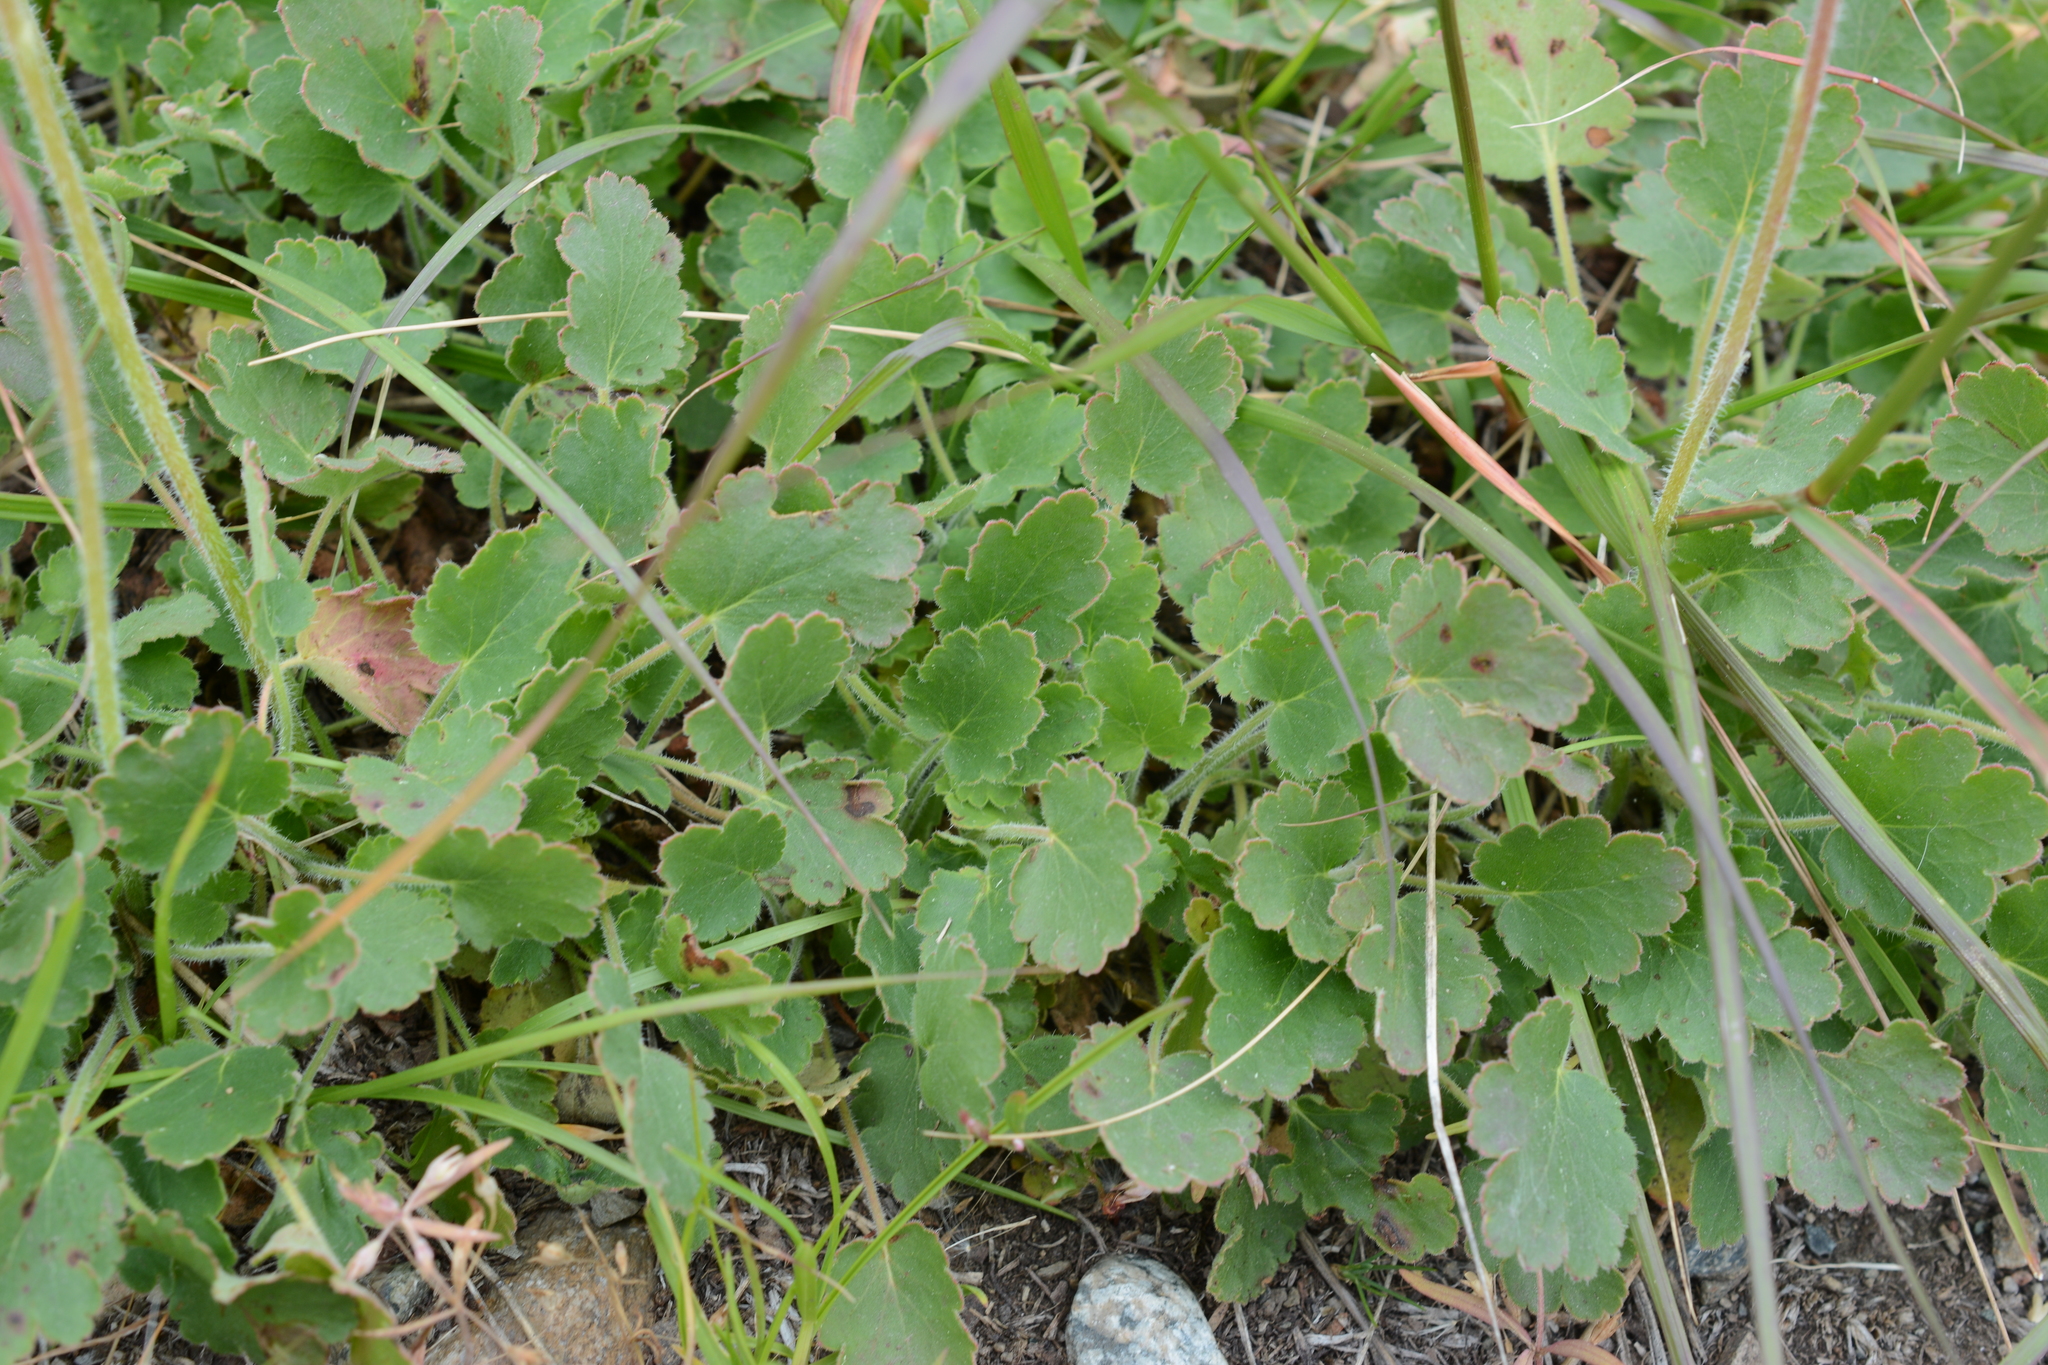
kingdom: Plantae
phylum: Tracheophyta
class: Magnoliopsida
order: Saxifragales
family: Saxifragaceae
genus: Heuchera
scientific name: Heuchera cylindrica
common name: Mat alumroot
